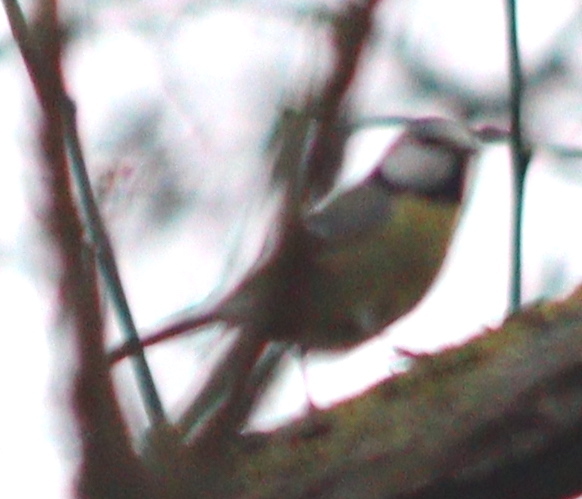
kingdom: Animalia
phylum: Chordata
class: Aves
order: Passeriformes
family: Paridae
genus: Cyanistes
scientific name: Cyanistes caeruleus
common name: Eurasian blue tit
